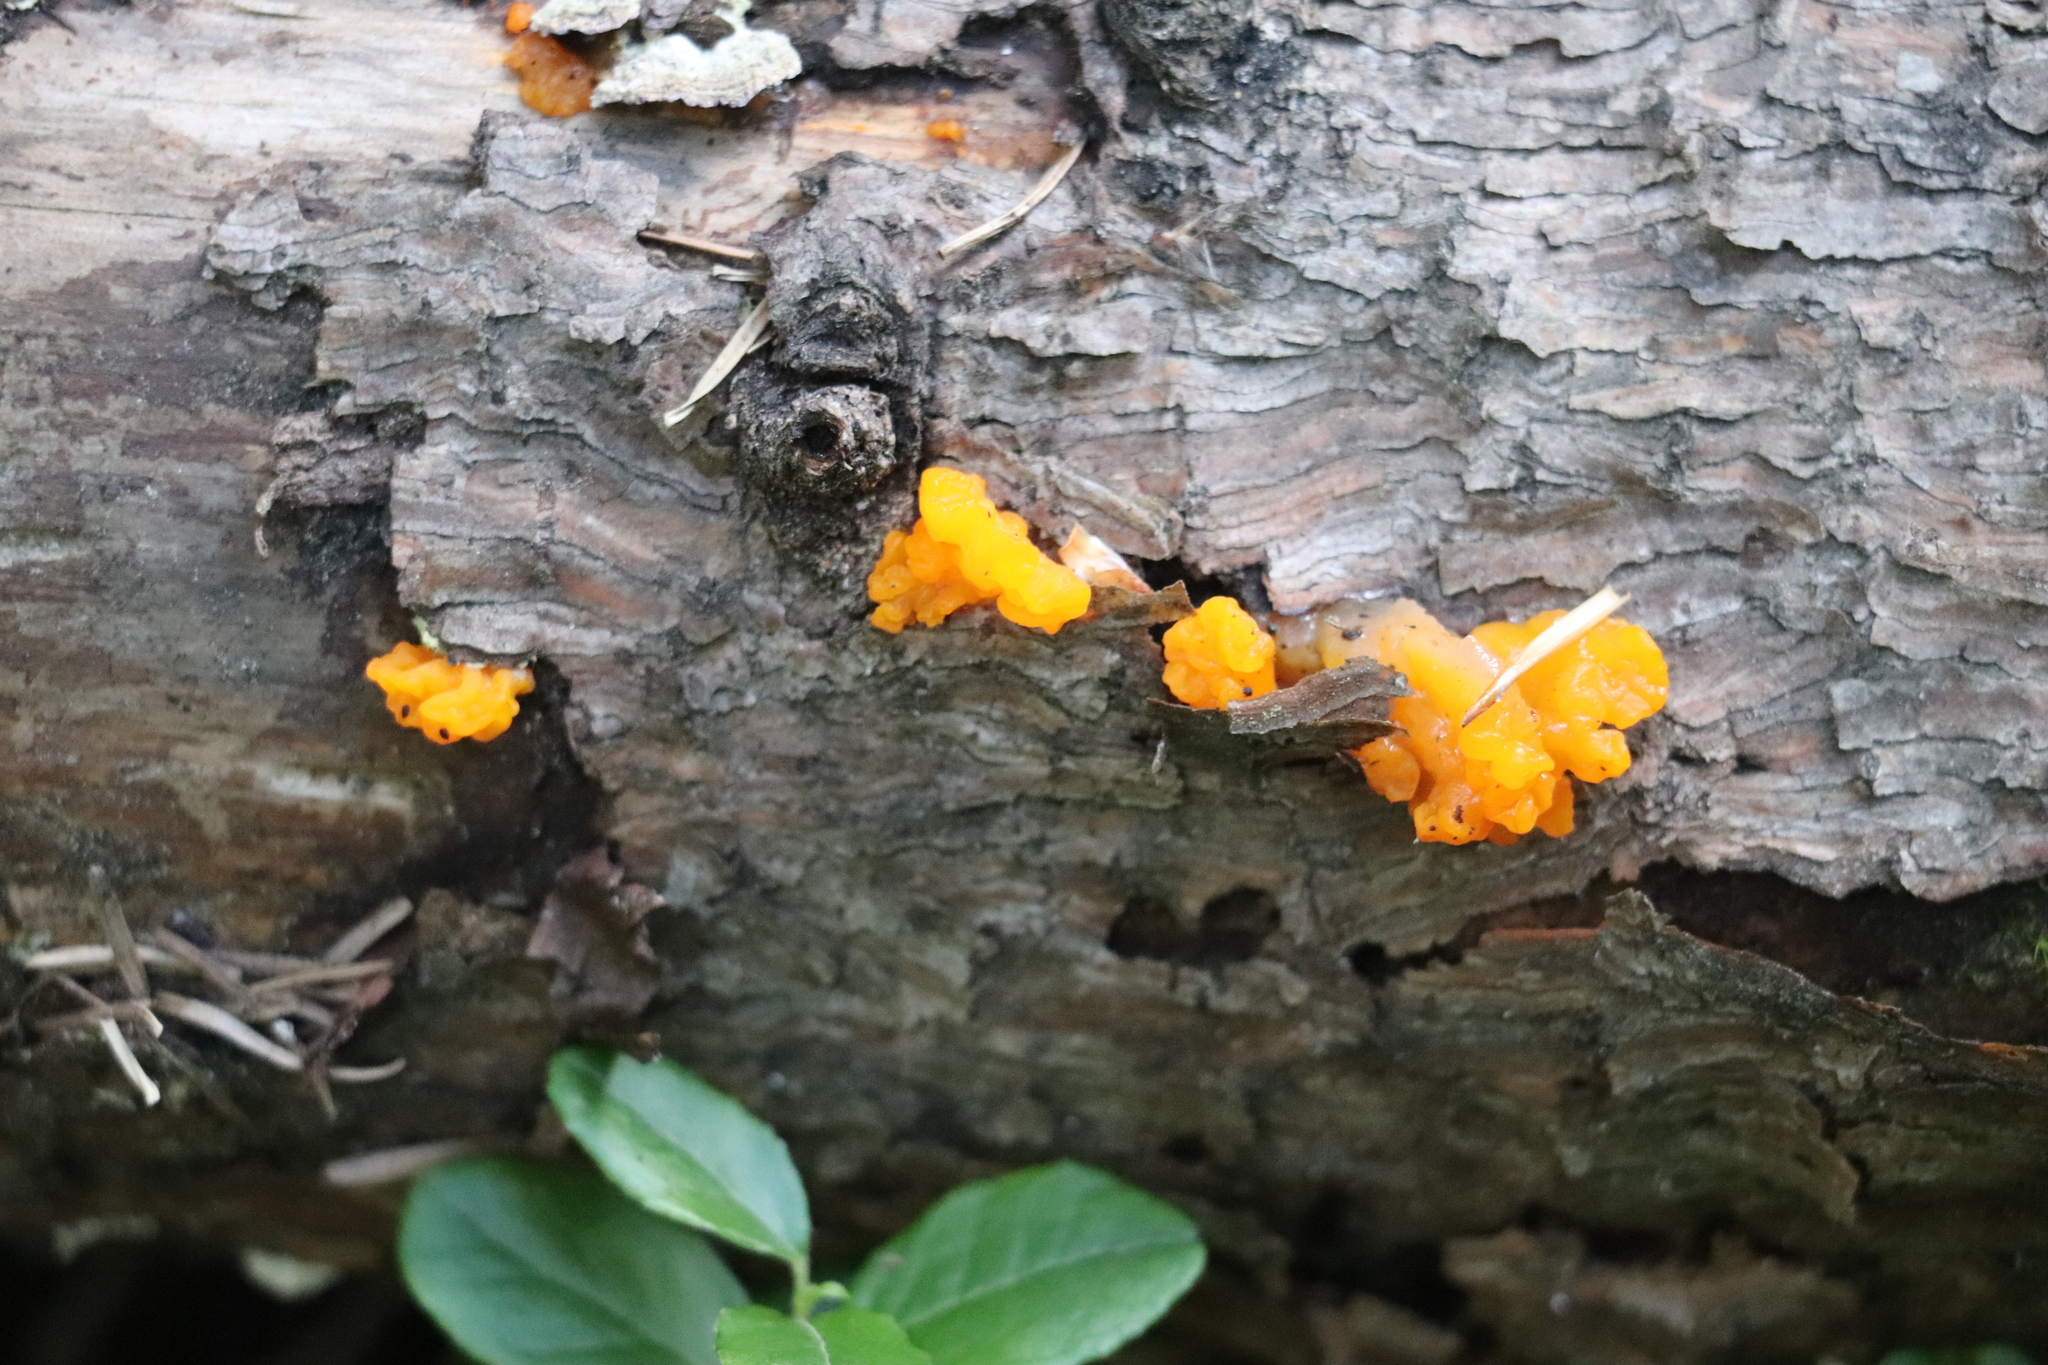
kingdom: Fungi
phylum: Basidiomycota
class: Dacrymycetes
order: Dacrymycetales
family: Dacrymycetaceae
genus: Dacrymyces
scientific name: Dacrymyces chrysospermus
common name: Orange jelly spot
